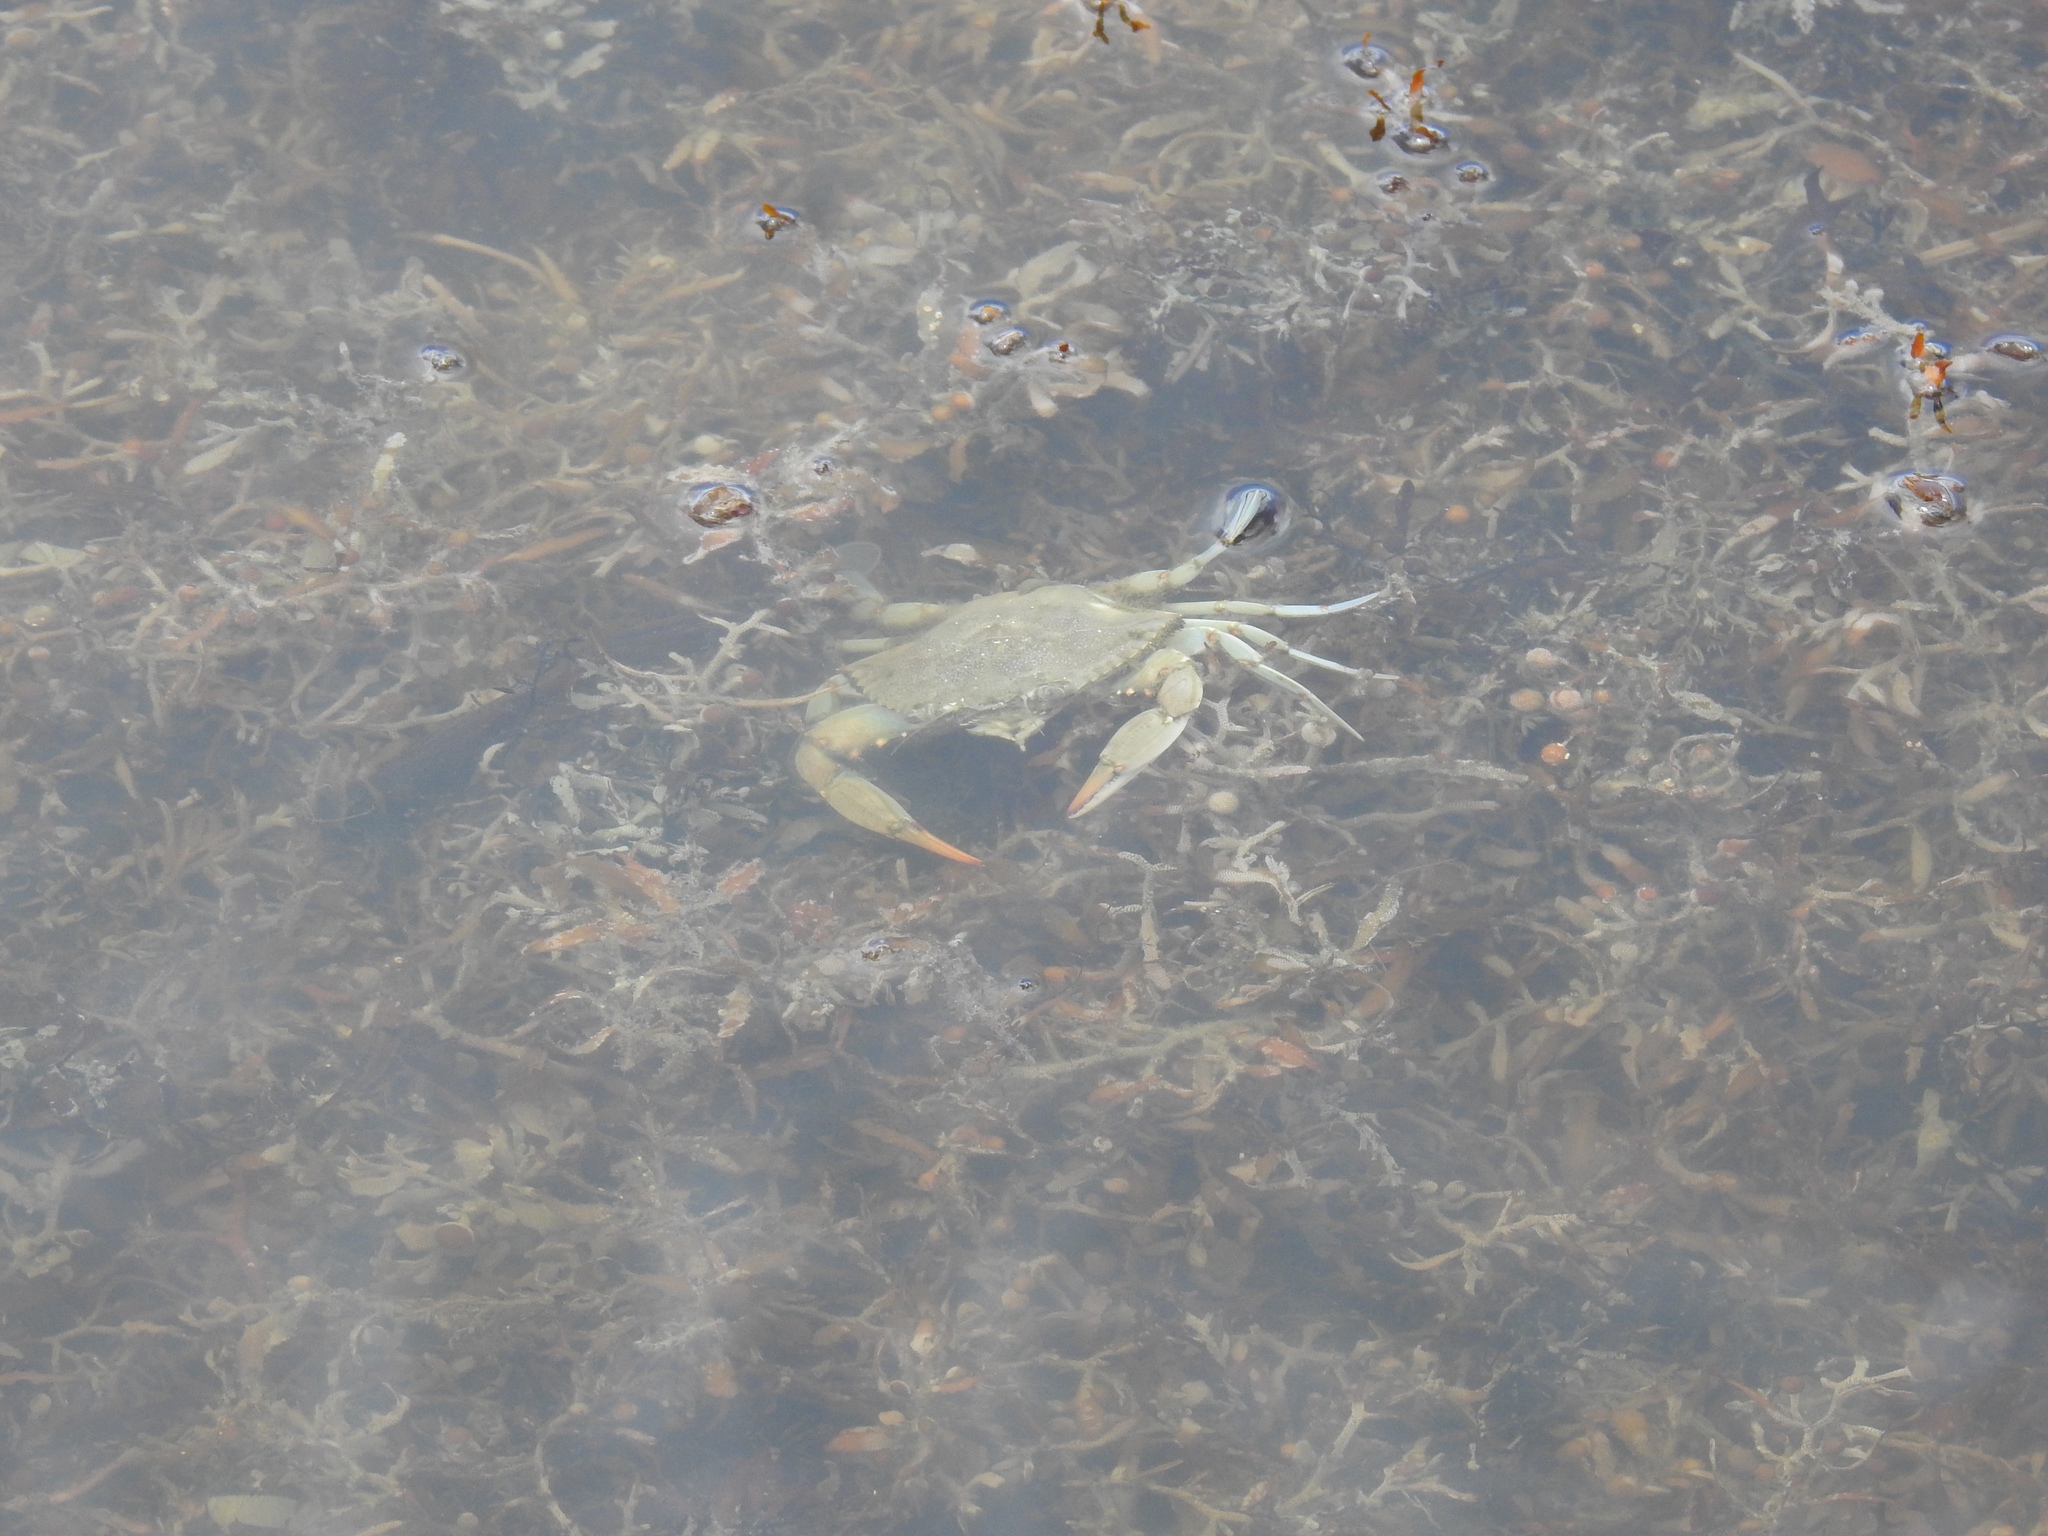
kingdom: Animalia
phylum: Arthropoda
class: Malacostraca
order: Decapoda
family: Portunidae
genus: Callinectes
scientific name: Callinectes sapidus
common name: Blue crab
